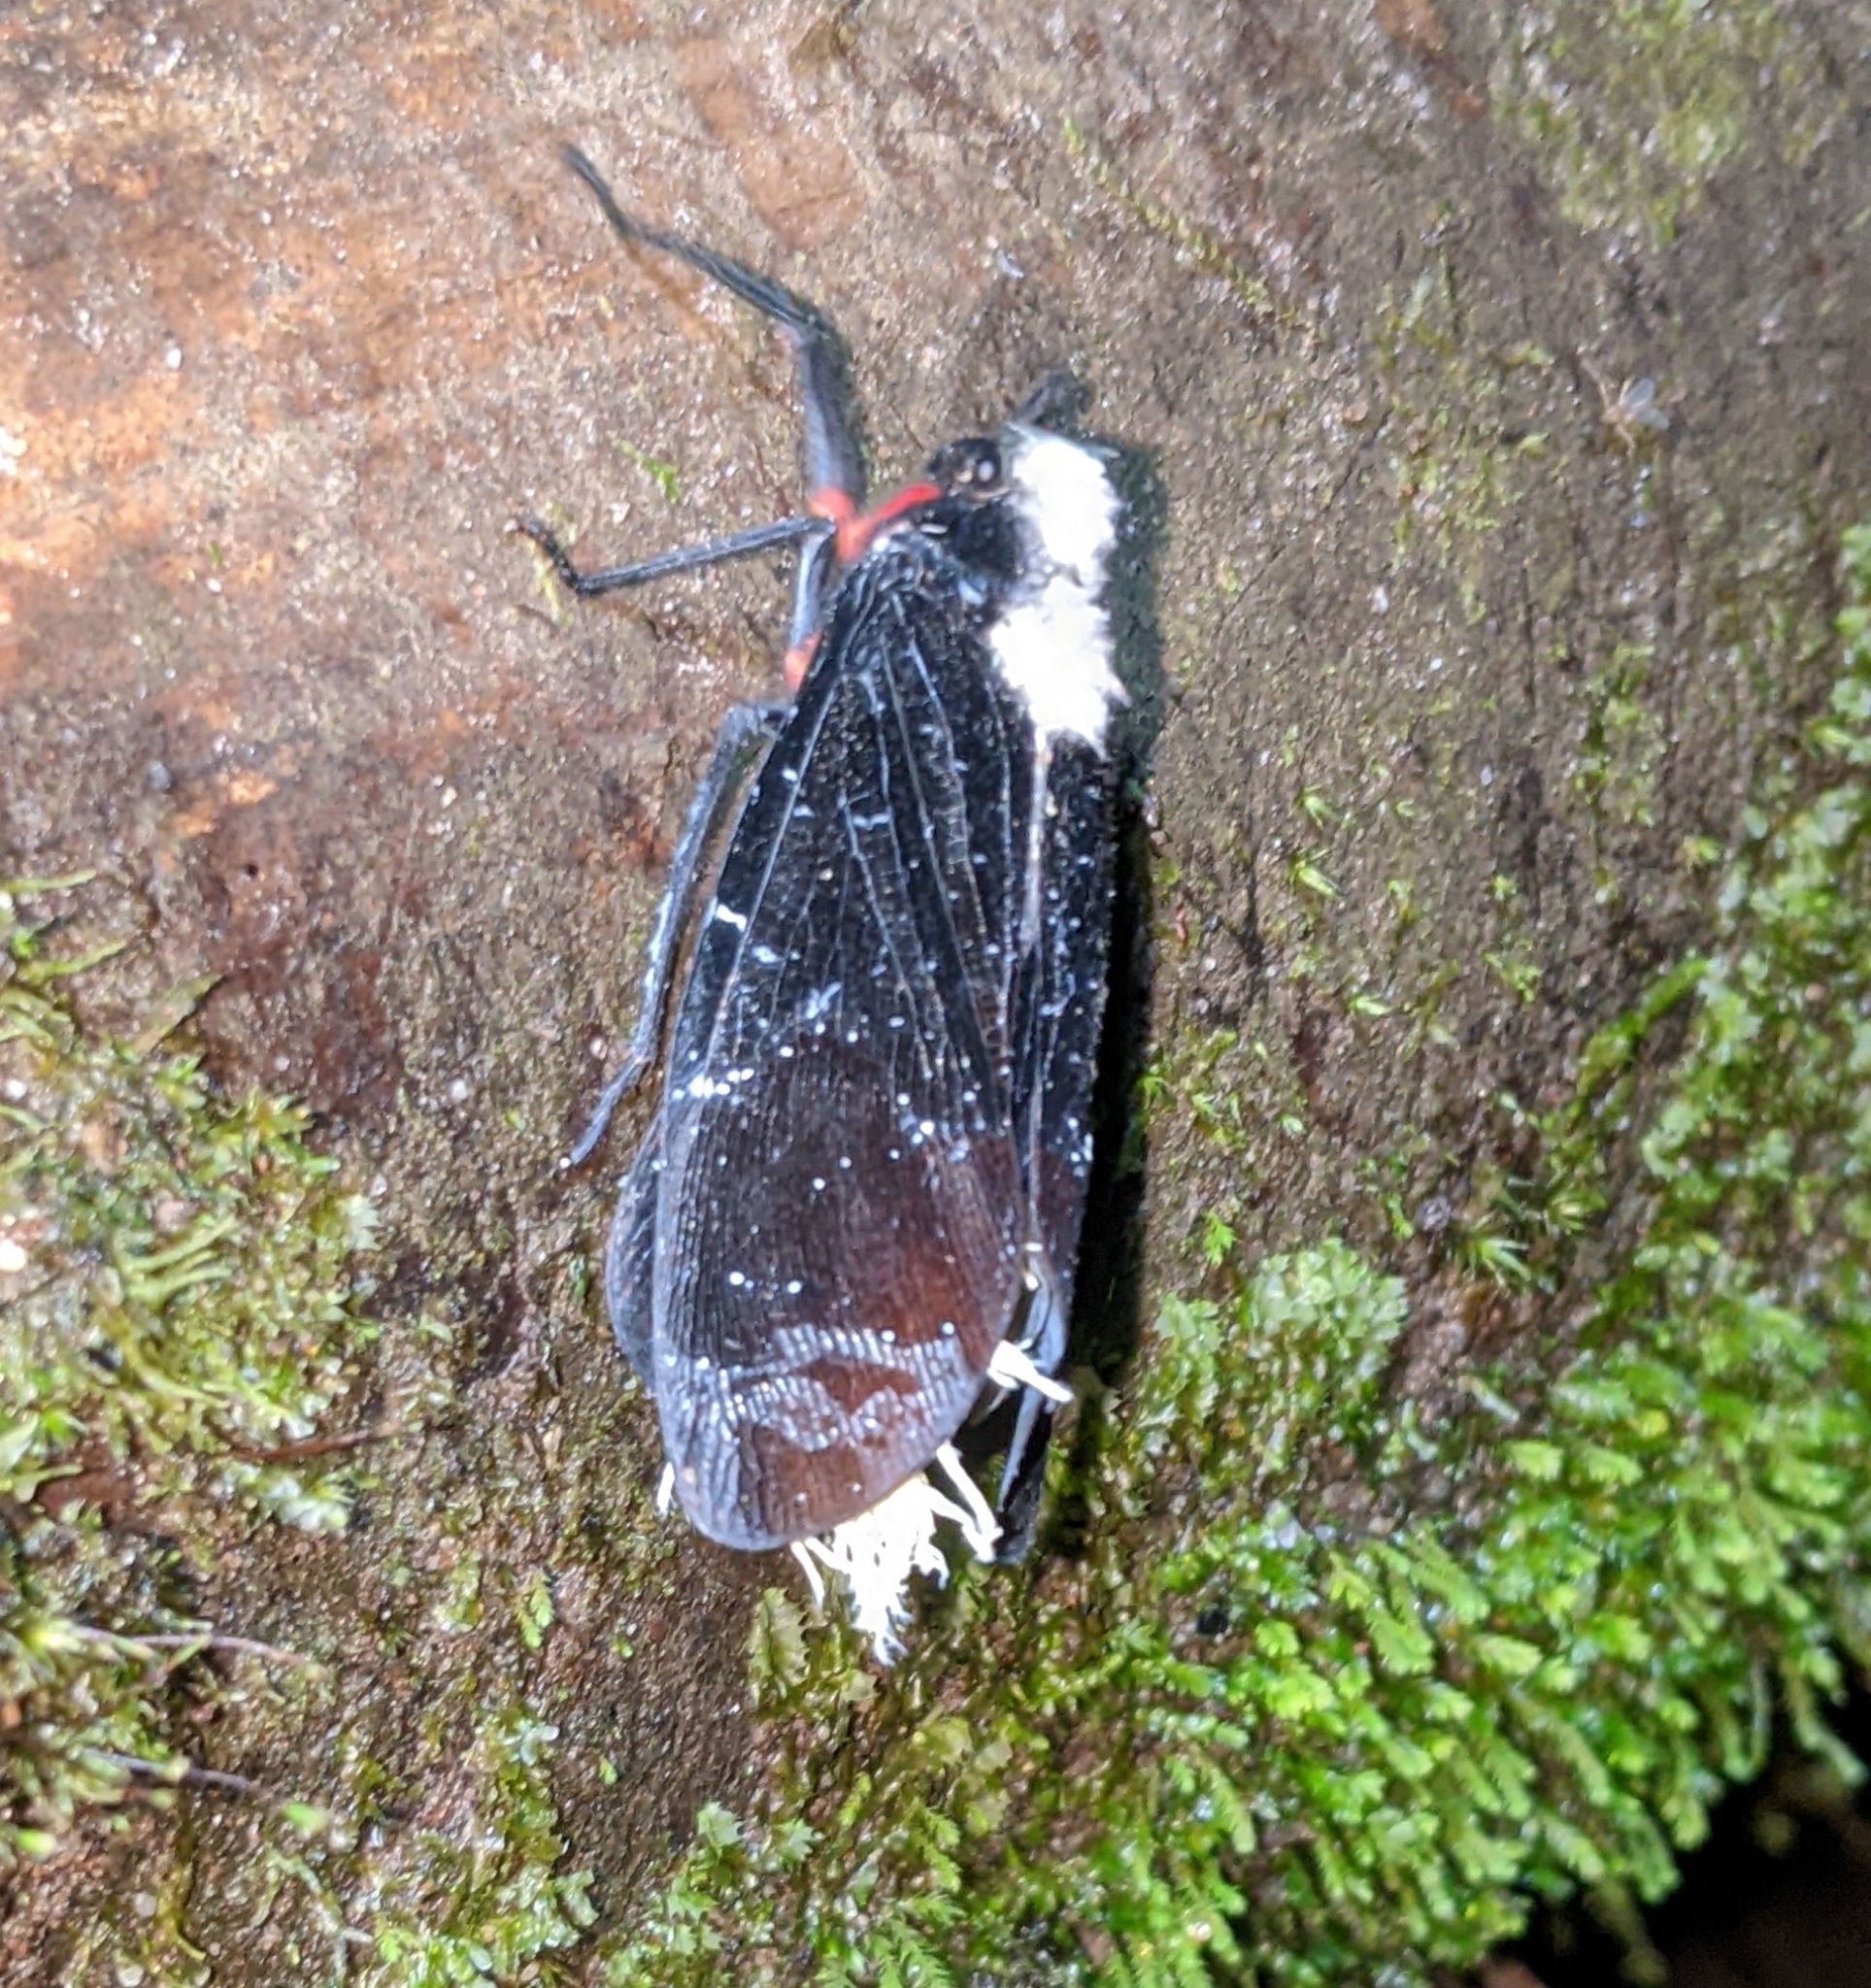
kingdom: Animalia
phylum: Arthropoda
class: Insecta
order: Hemiptera
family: Fulgoridae
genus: Menenia
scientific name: Menenia terebrifera
